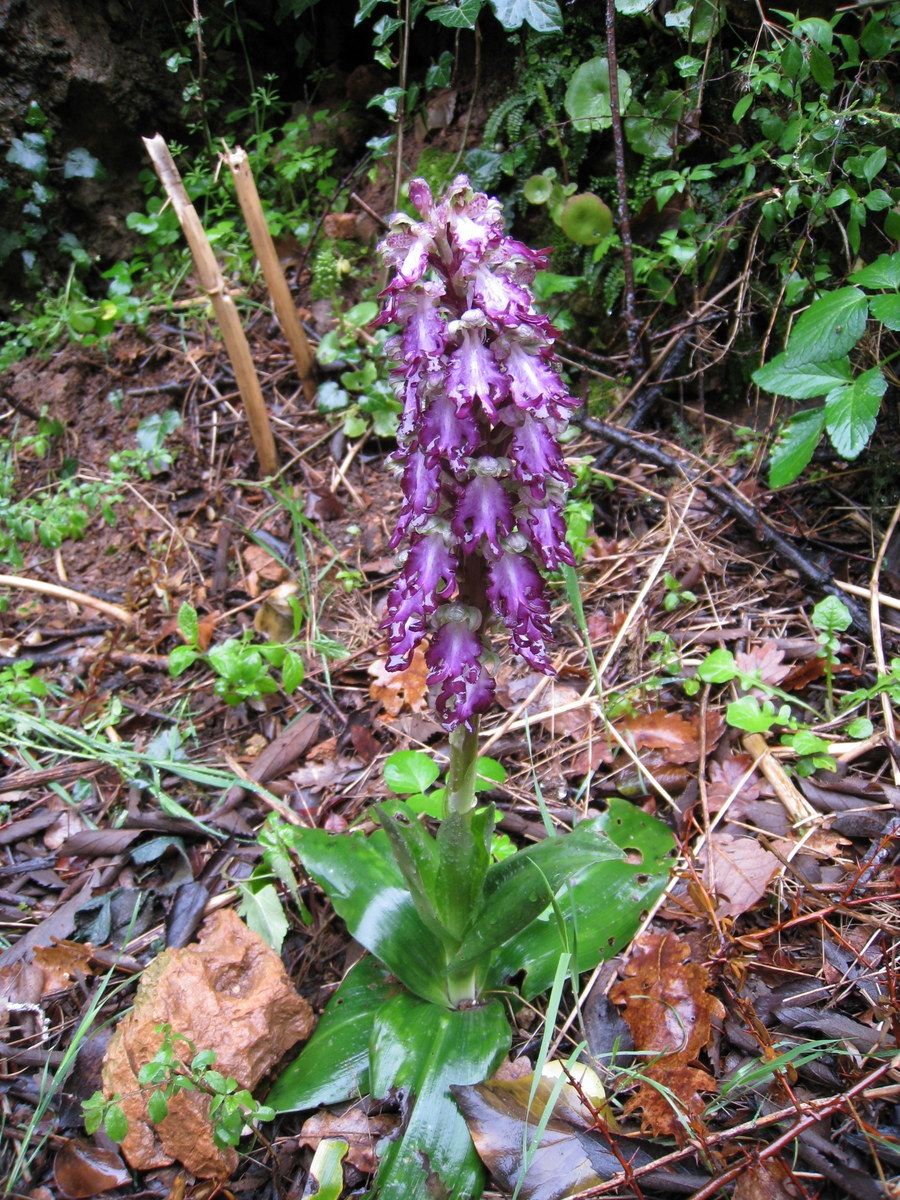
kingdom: Plantae
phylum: Tracheophyta
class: Liliopsida
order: Asparagales
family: Orchidaceae
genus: Himantoglossum
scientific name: Himantoglossum robertianum
